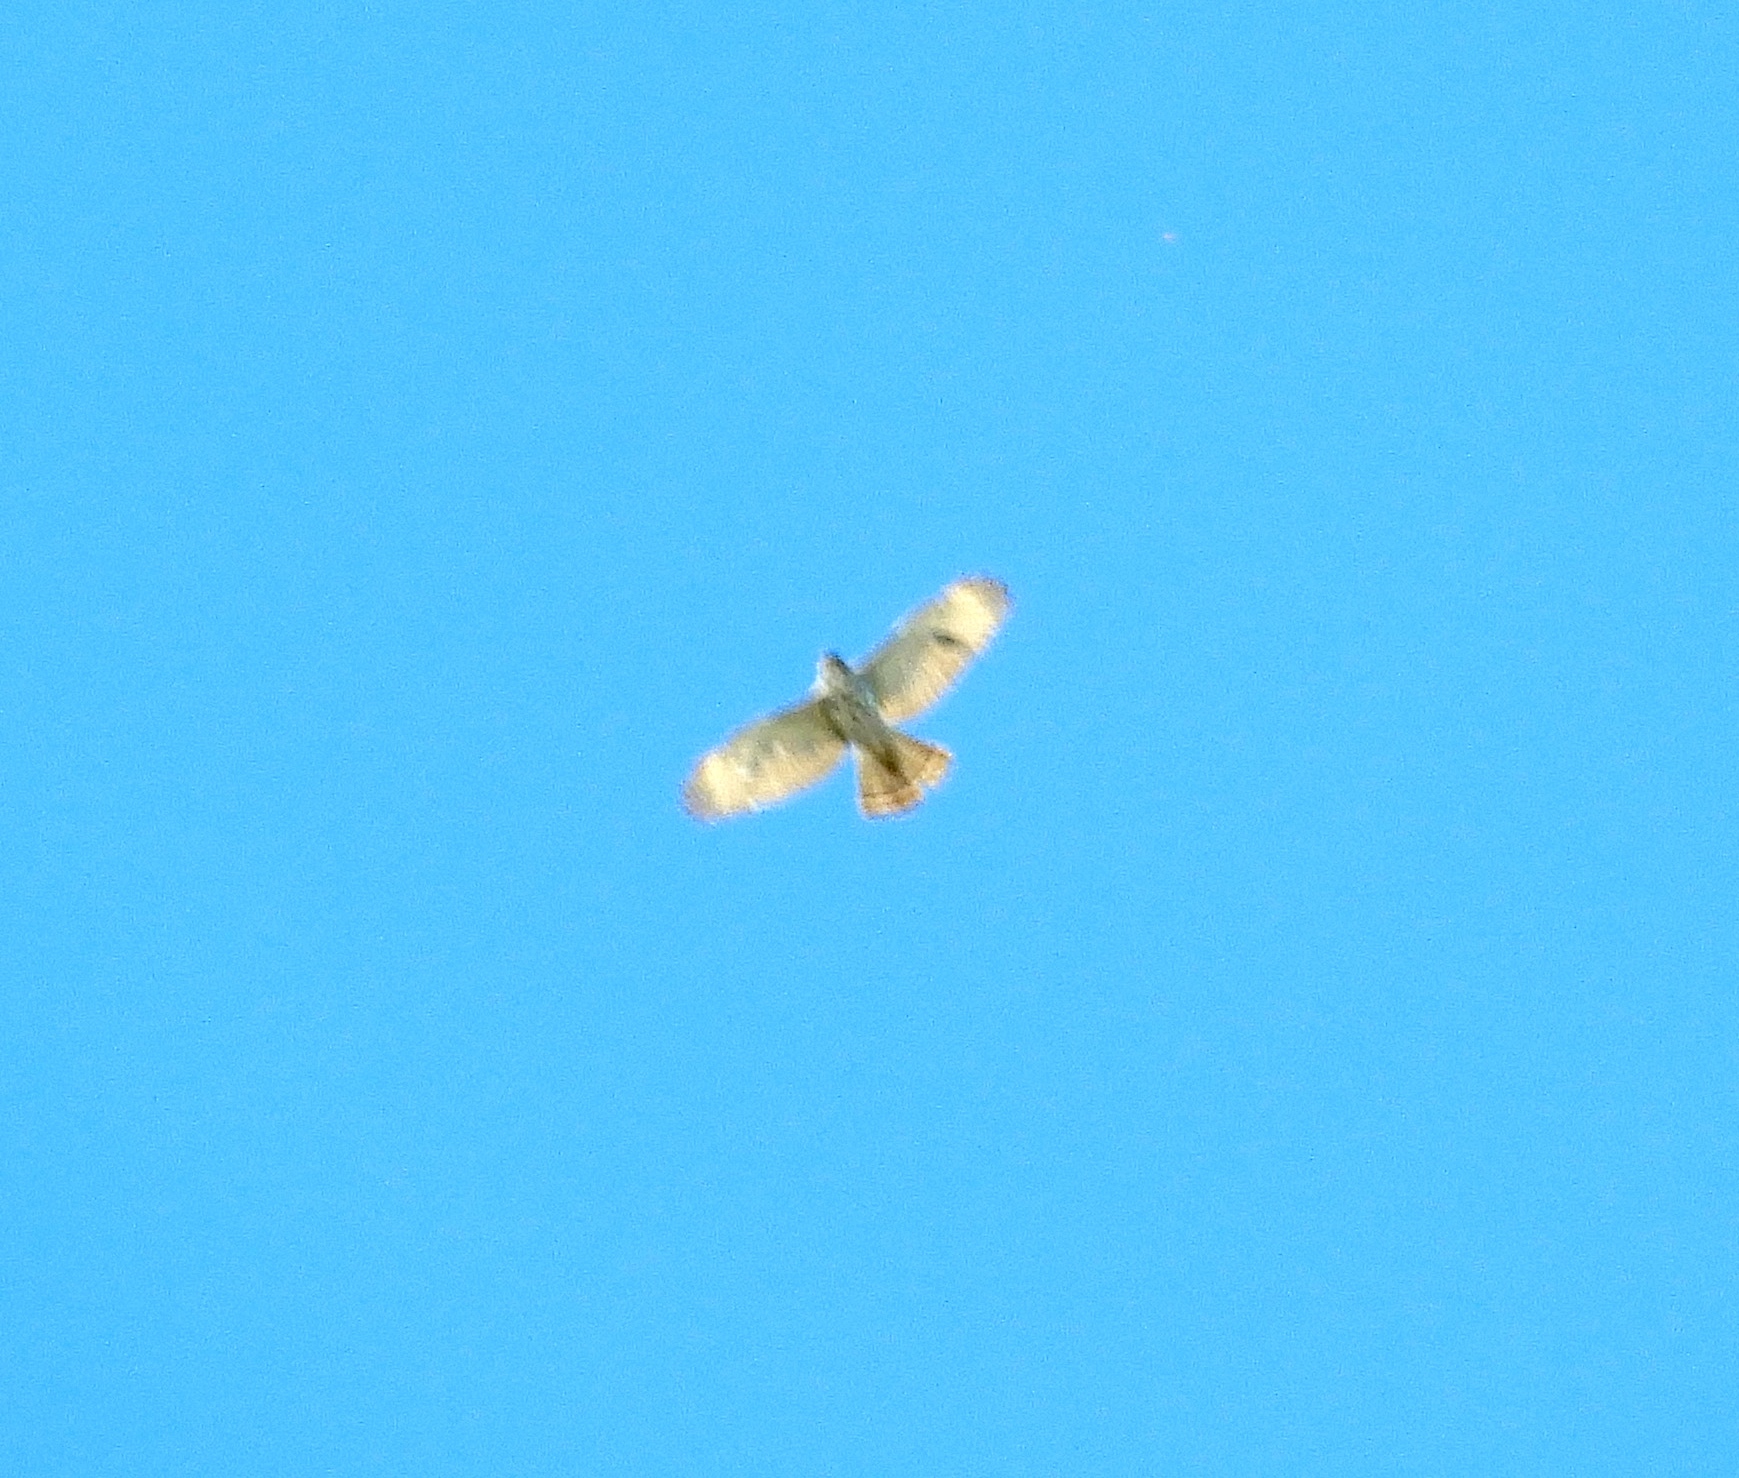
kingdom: Animalia
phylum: Chordata
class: Aves
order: Accipitriformes
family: Accipitridae
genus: Buteo
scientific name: Buteo jamaicensis
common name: Red-tailed hawk
